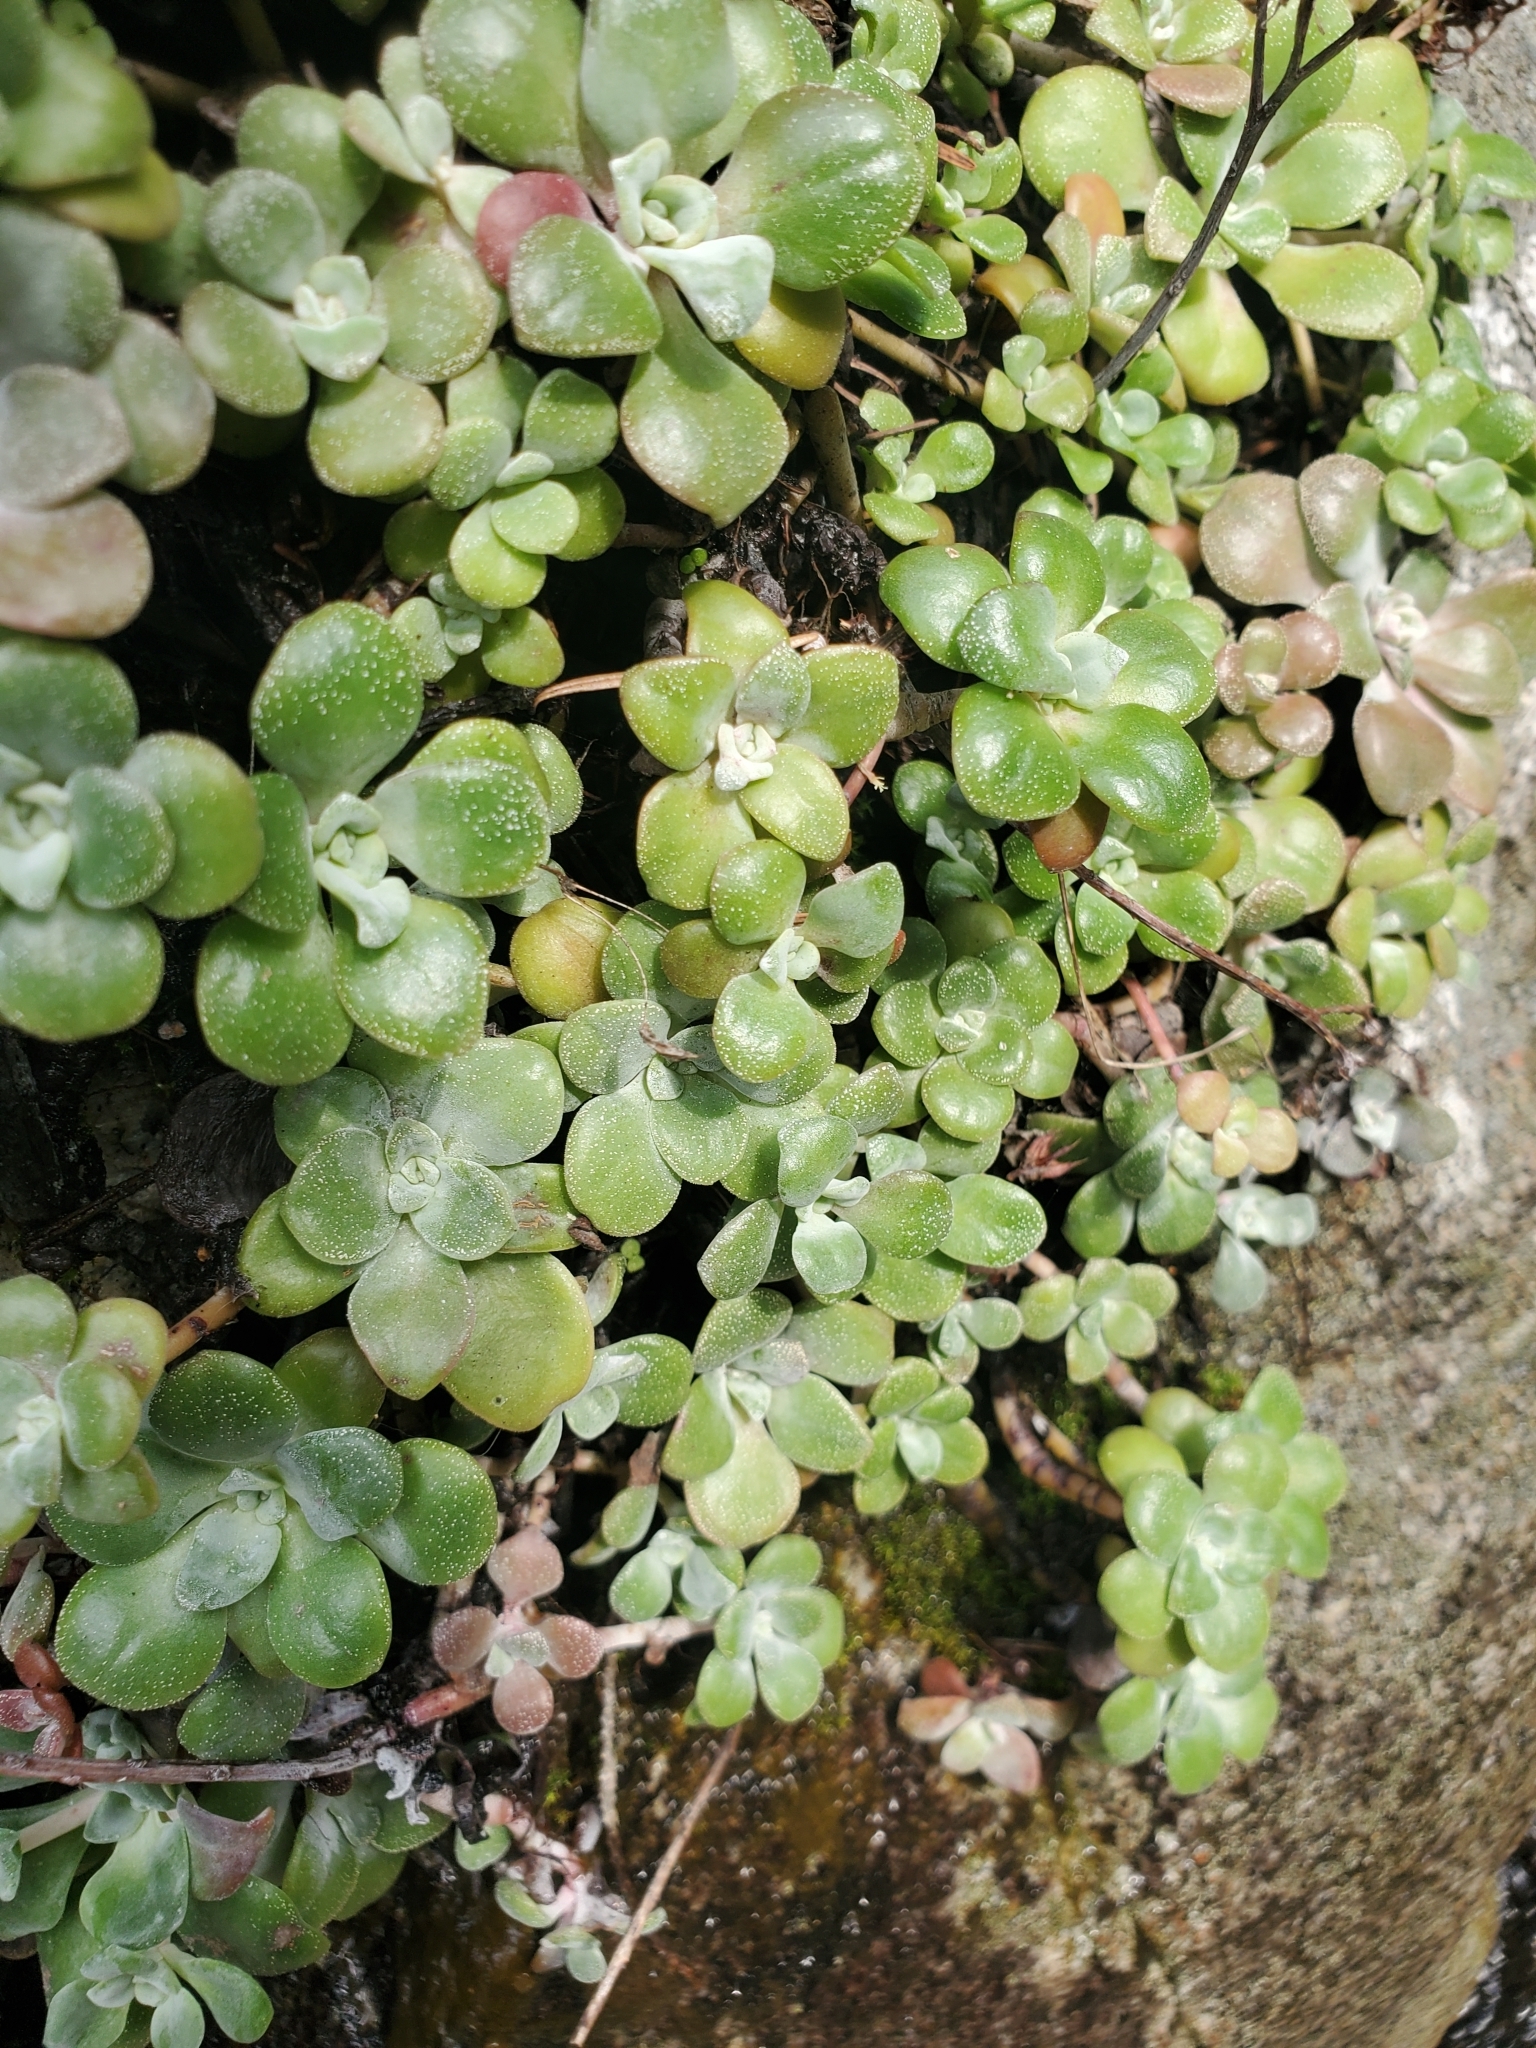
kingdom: Plantae
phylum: Tracheophyta
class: Magnoliopsida
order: Saxifragales
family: Crassulaceae
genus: Sedum
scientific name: Sedum spathulifolium
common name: Colorado stonecrop
